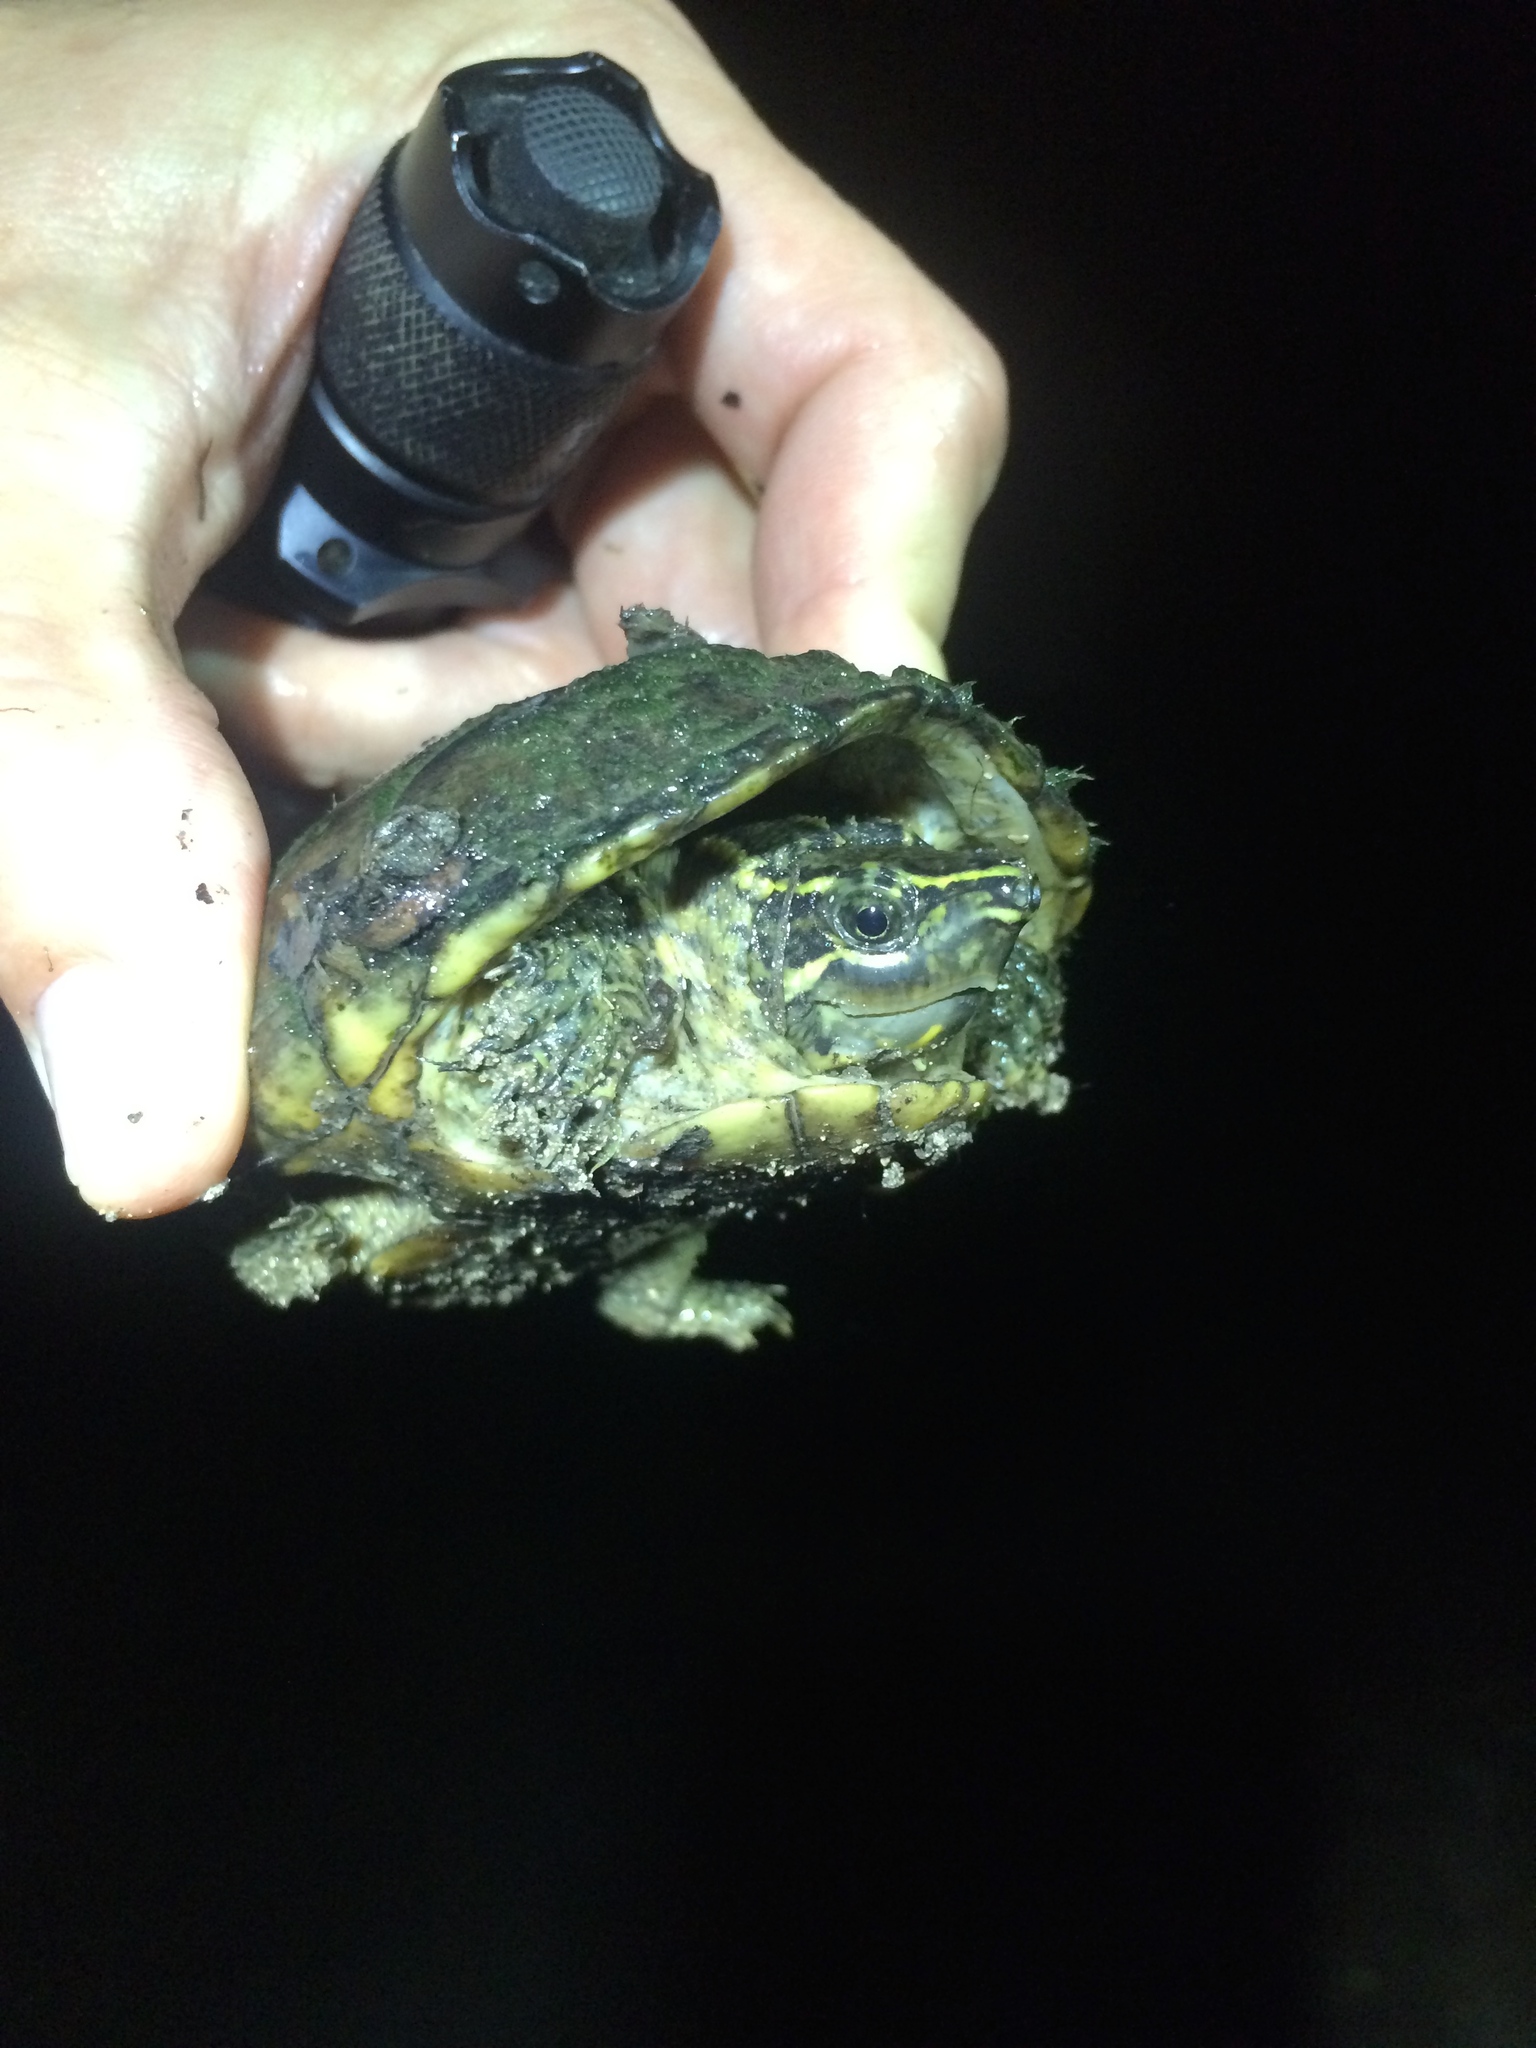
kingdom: Animalia
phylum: Chordata
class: Testudines
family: Kinosternidae
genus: Sternotherus
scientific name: Sternotherus odoratus
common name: Common musk turtle
